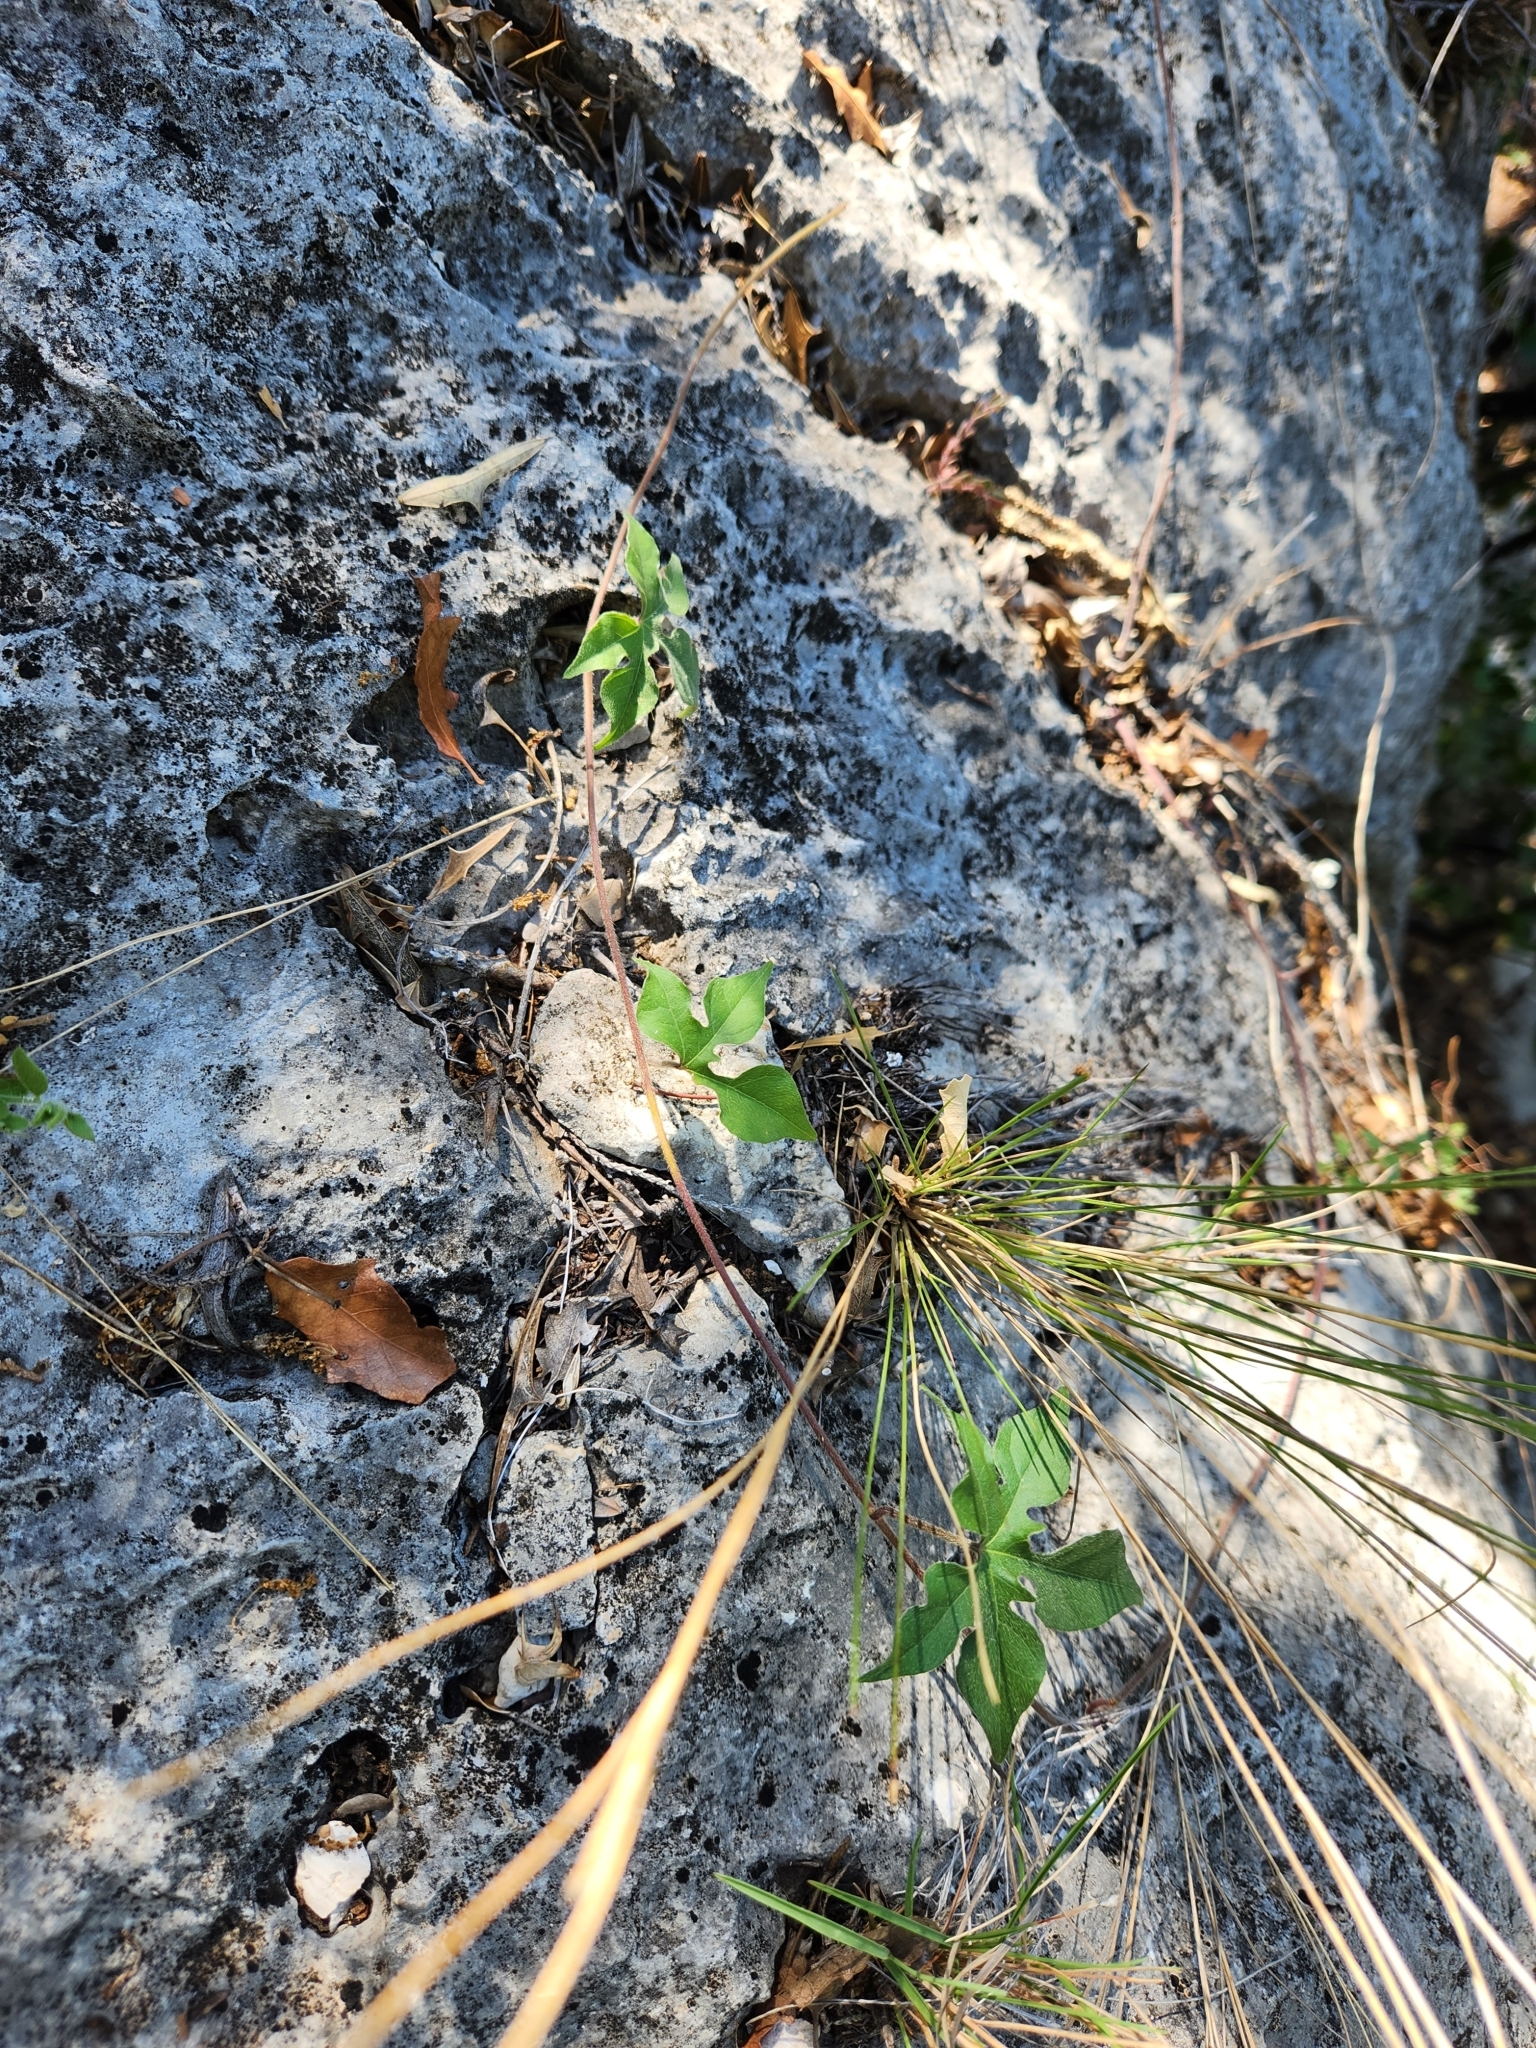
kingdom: Plantae
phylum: Tracheophyta
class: Magnoliopsida
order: Solanales
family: Convolvulaceae
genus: Ipomoea
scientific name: Ipomoea lindheimeri
